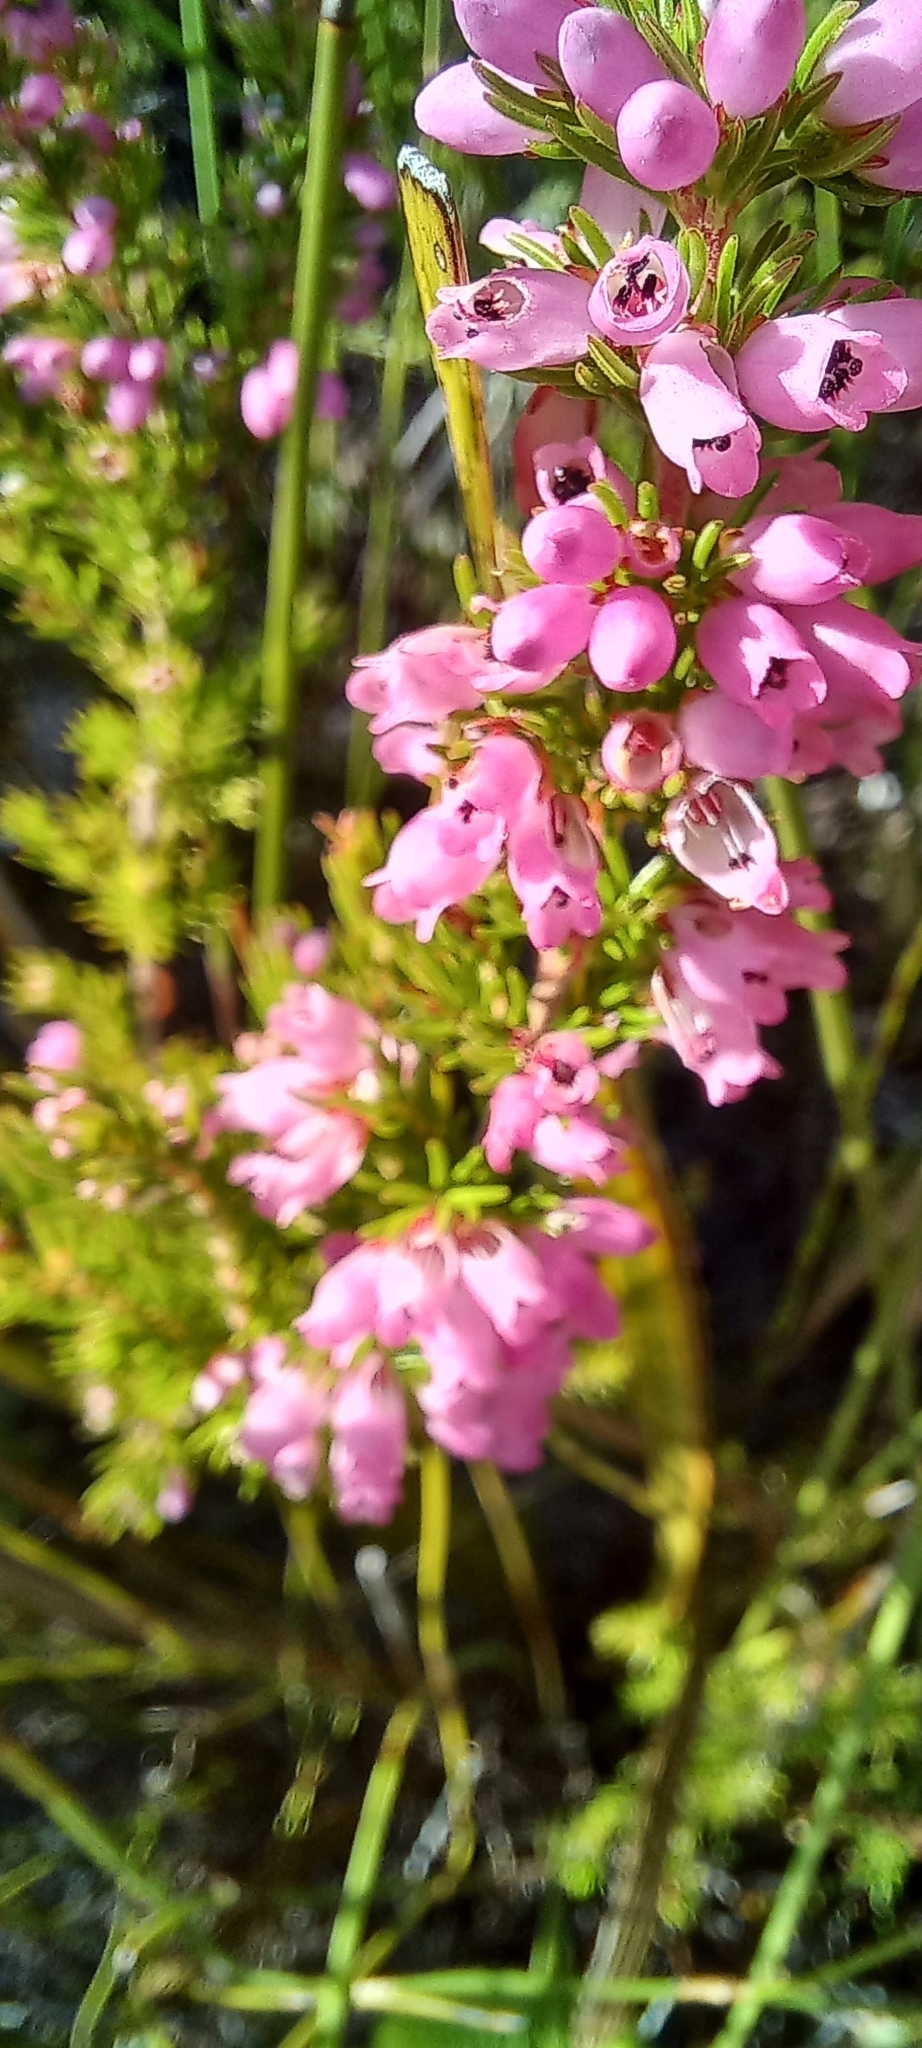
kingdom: Plantae
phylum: Tracheophyta
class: Magnoliopsida
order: Ericales
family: Ericaceae
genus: Erica
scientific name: Erica sitiens
